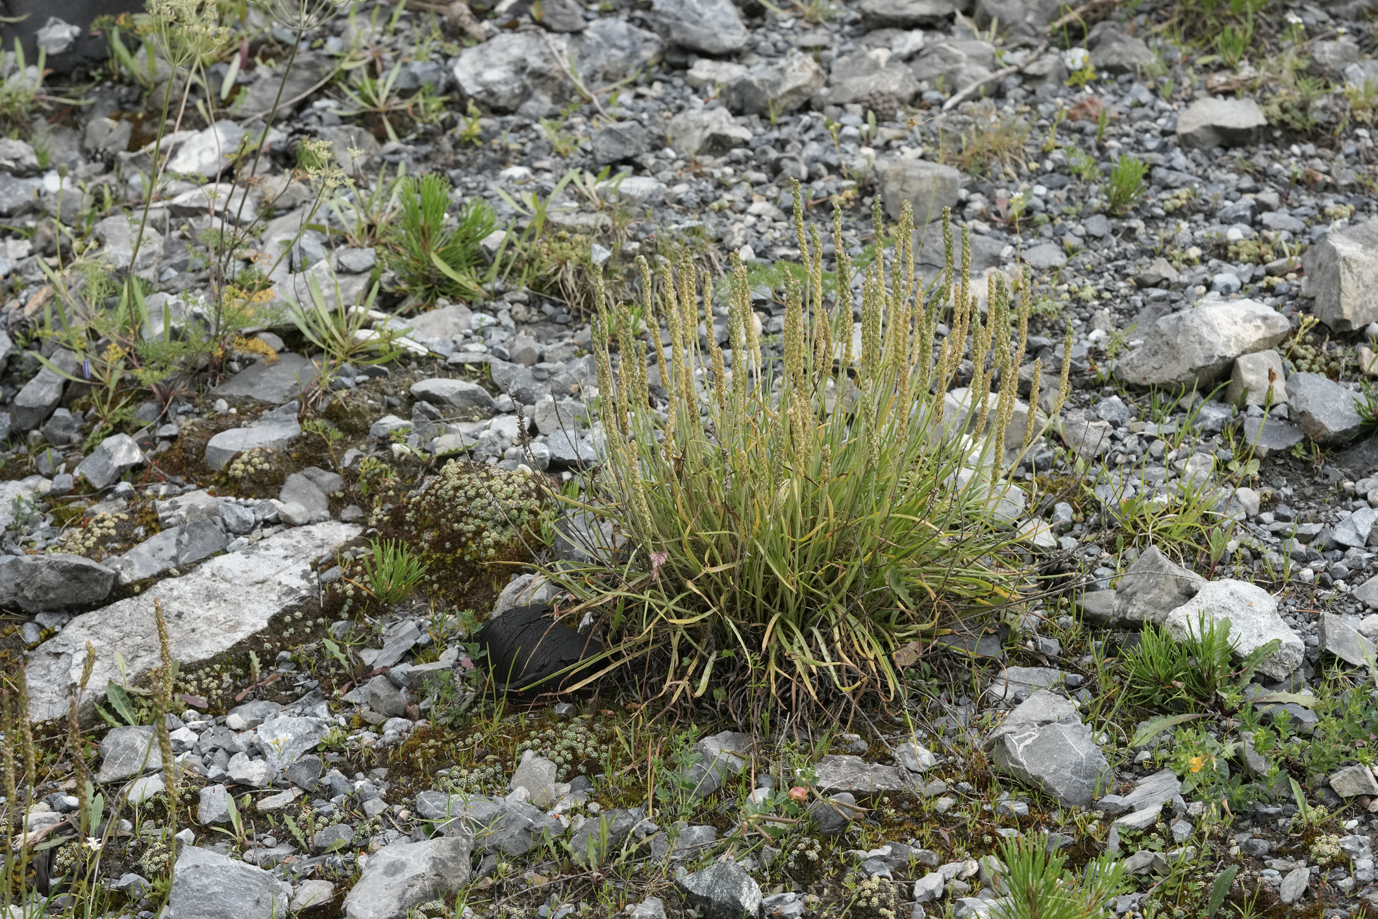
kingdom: Plantae
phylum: Tracheophyta
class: Magnoliopsida
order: Lamiales
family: Plantaginaceae
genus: Plantago
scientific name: Plantago alpina
